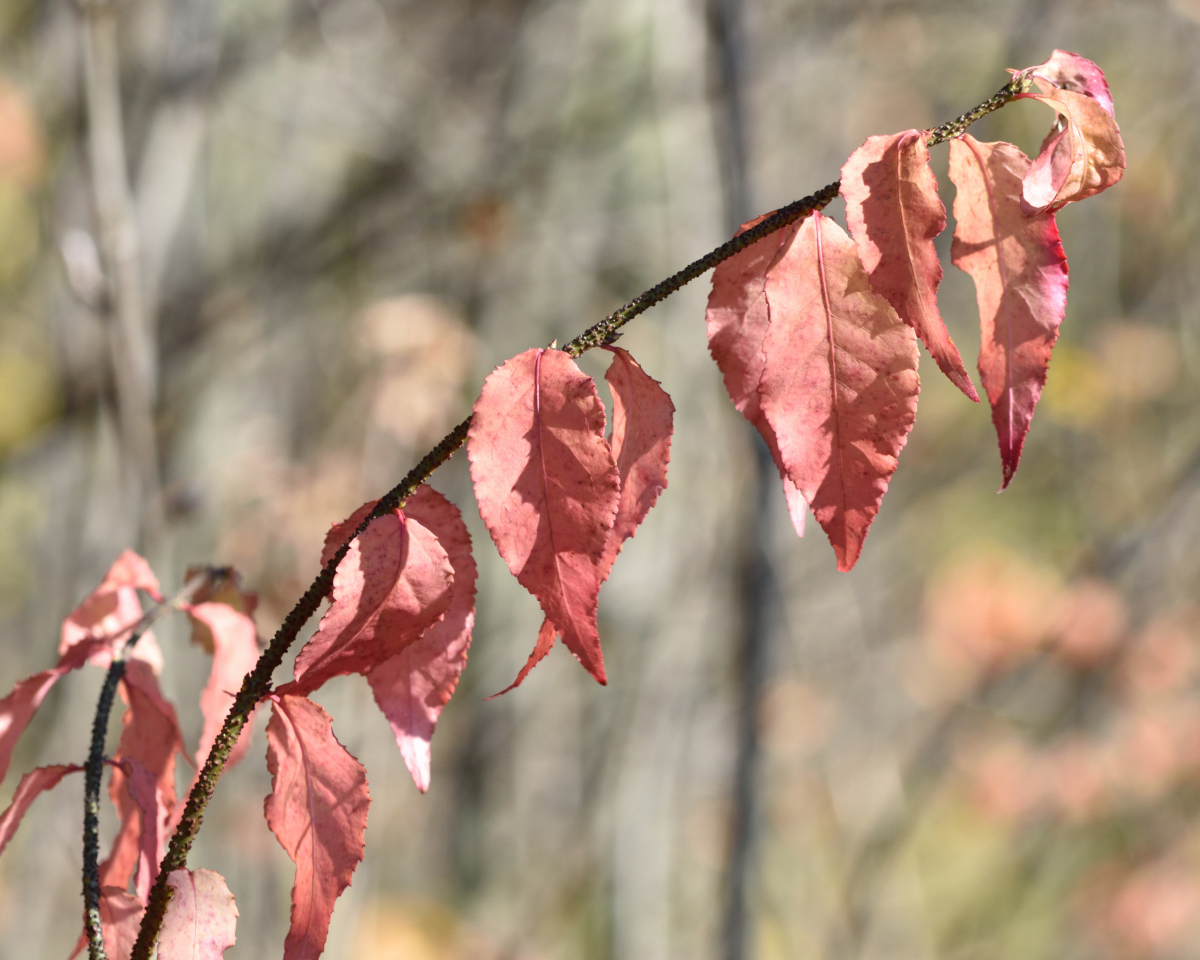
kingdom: Plantae
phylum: Tracheophyta
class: Magnoliopsida
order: Celastrales
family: Celastraceae
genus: Euonymus
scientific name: Euonymus verrucosus
